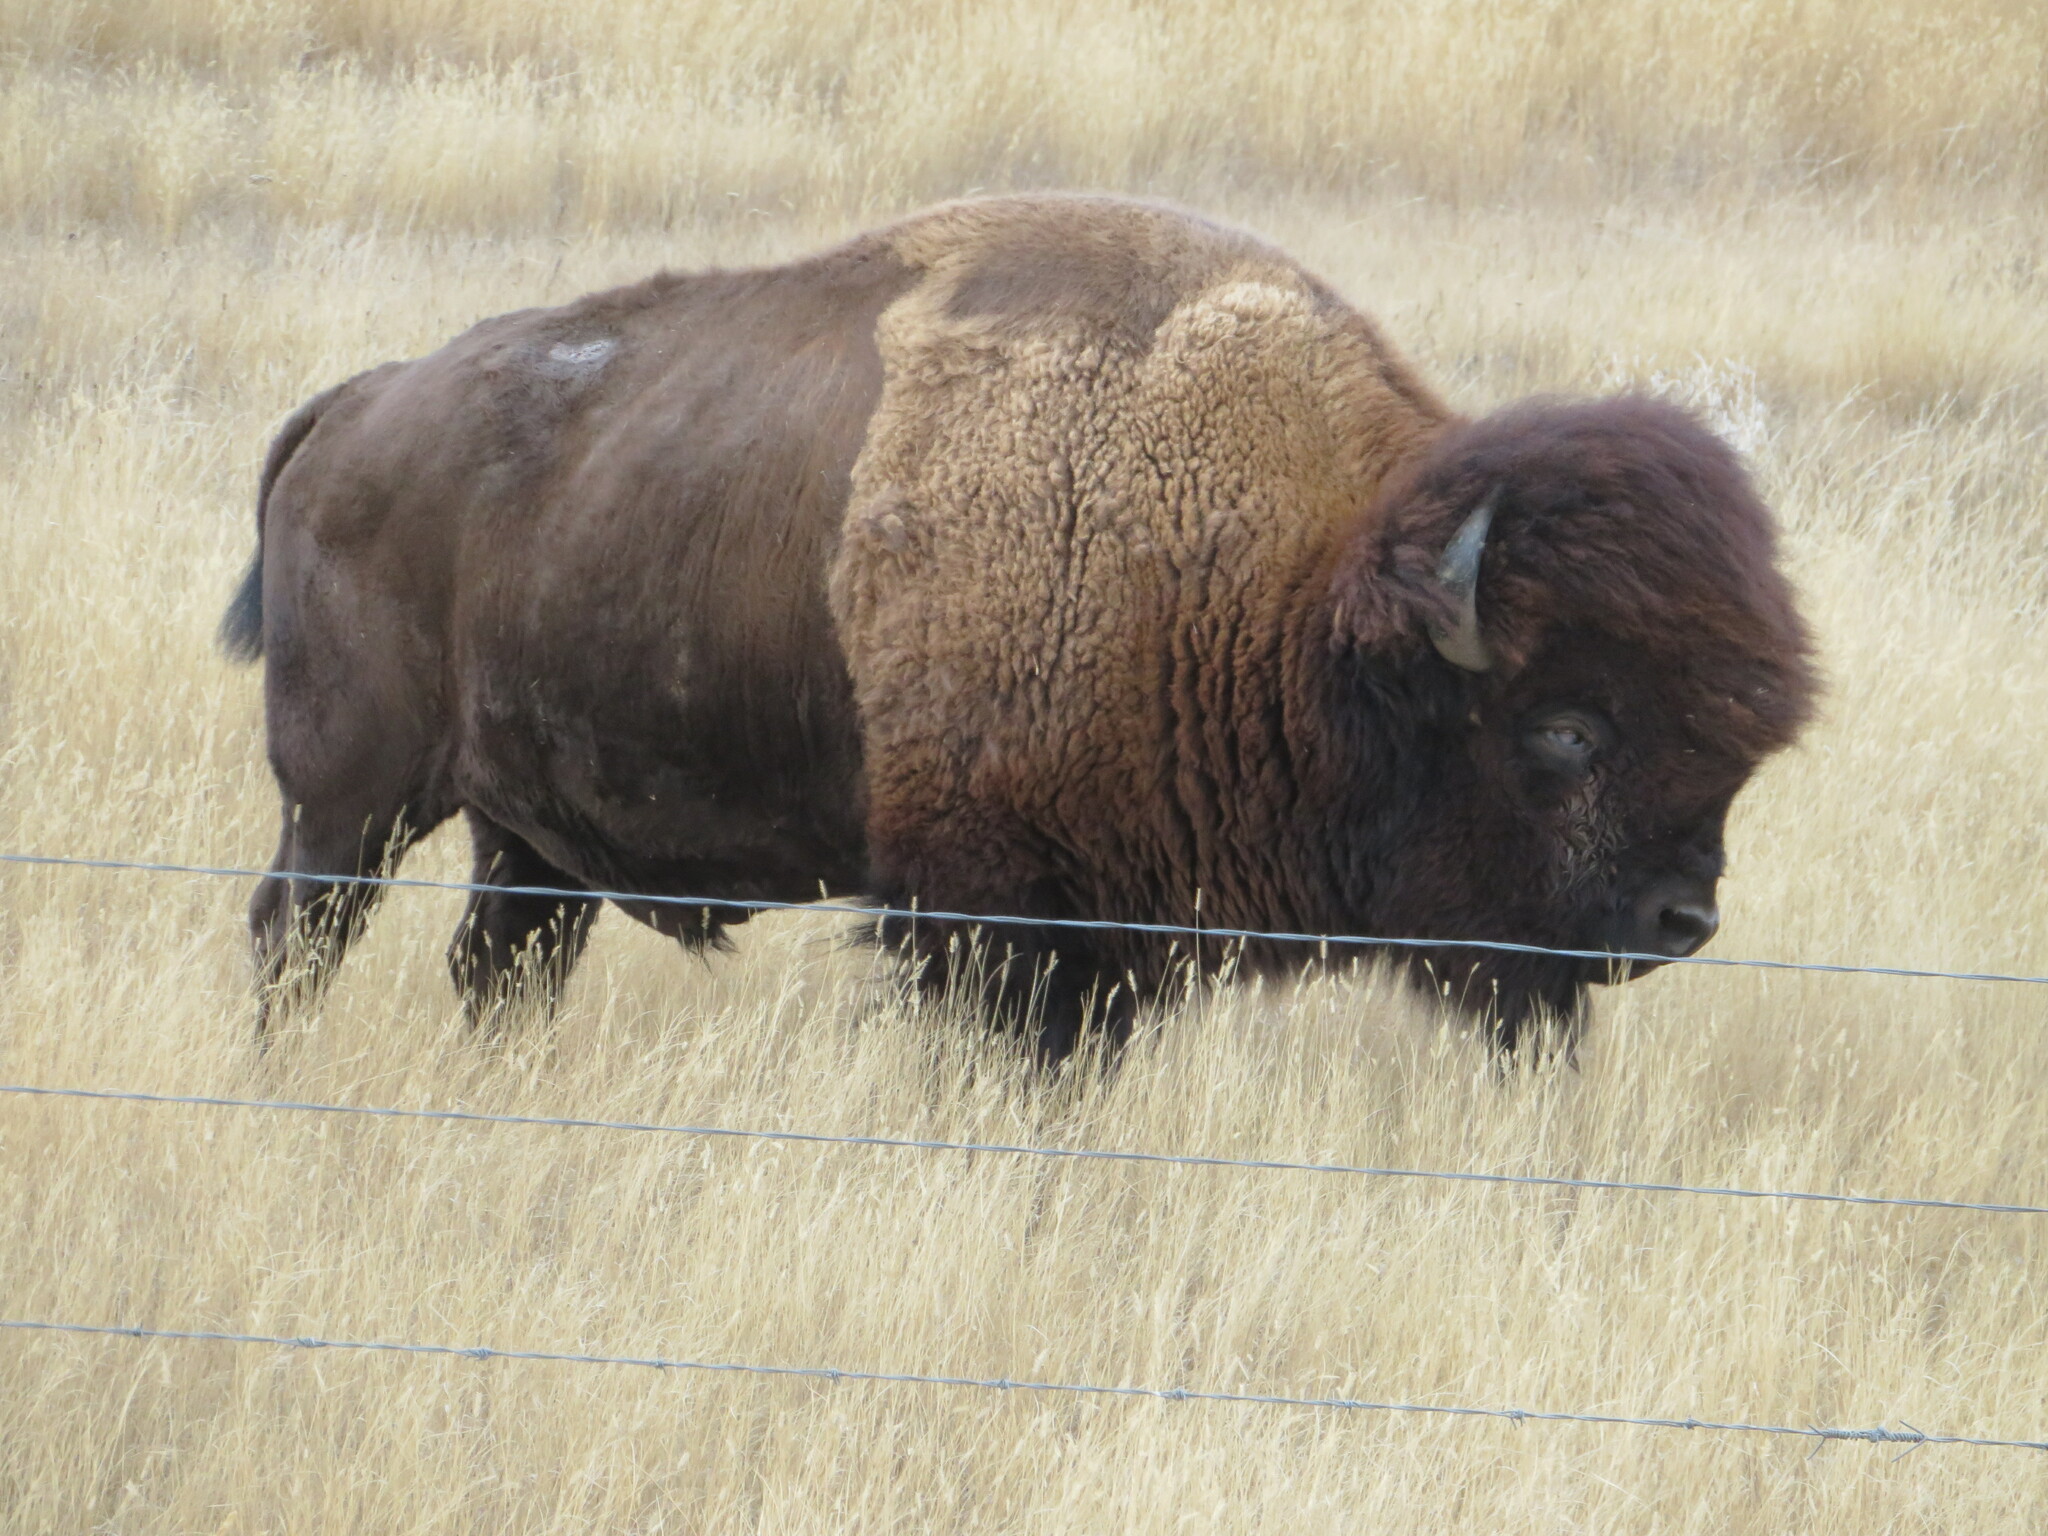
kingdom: Animalia
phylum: Chordata
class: Mammalia
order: Artiodactyla
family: Bovidae
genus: Bison
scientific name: Bison bison
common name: American bison
